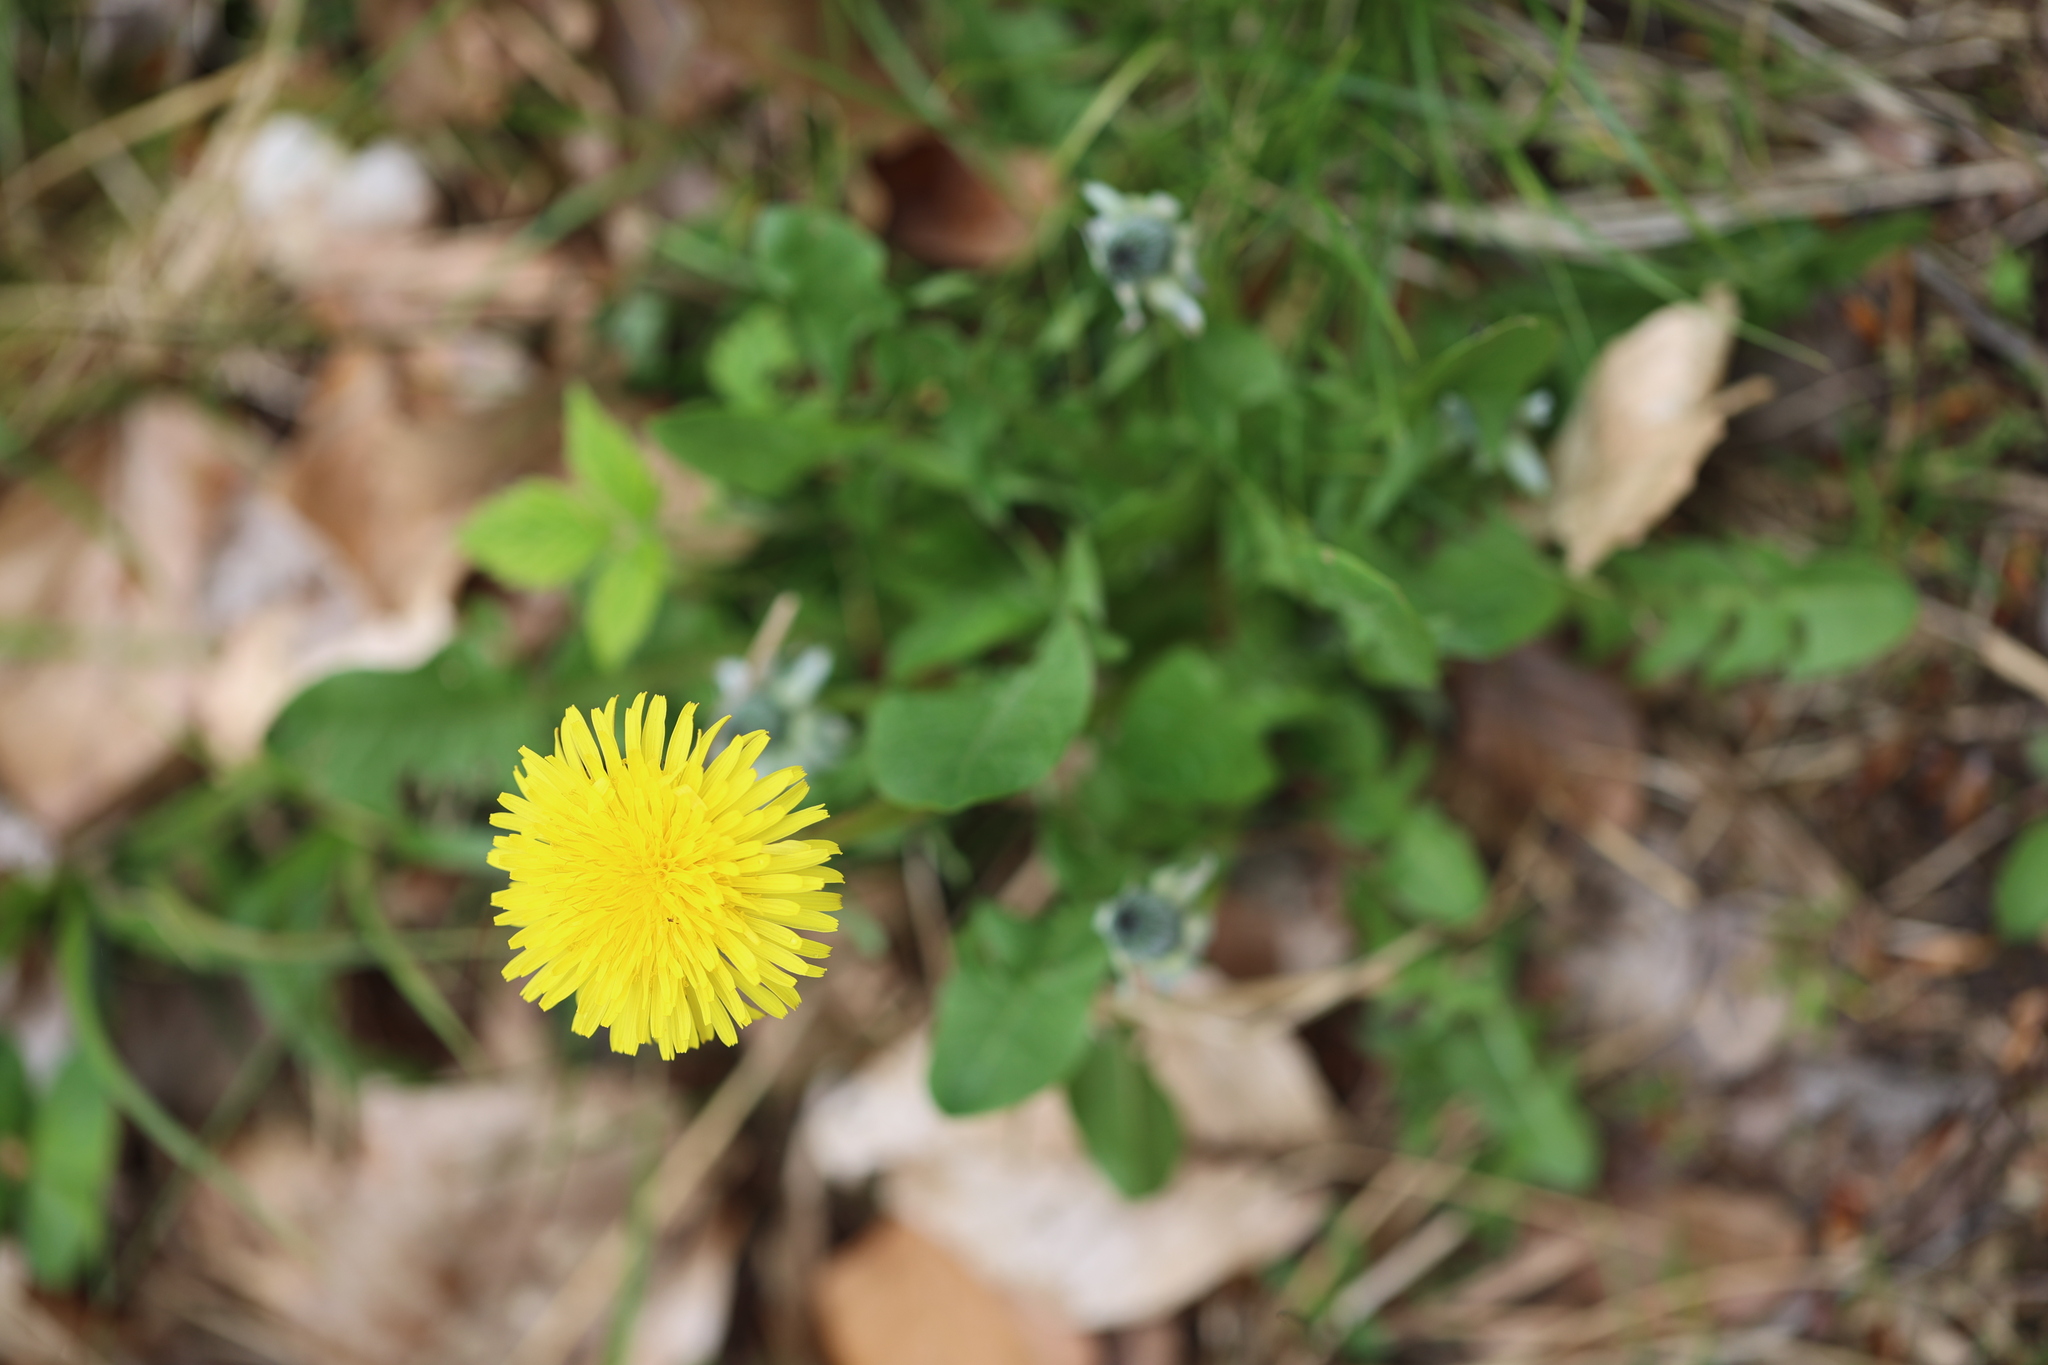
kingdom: Plantae
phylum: Tracheophyta
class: Magnoliopsida
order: Asterales
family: Asteraceae
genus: Taraxacum
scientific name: Taraxacum officinale
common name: Common dandelion
